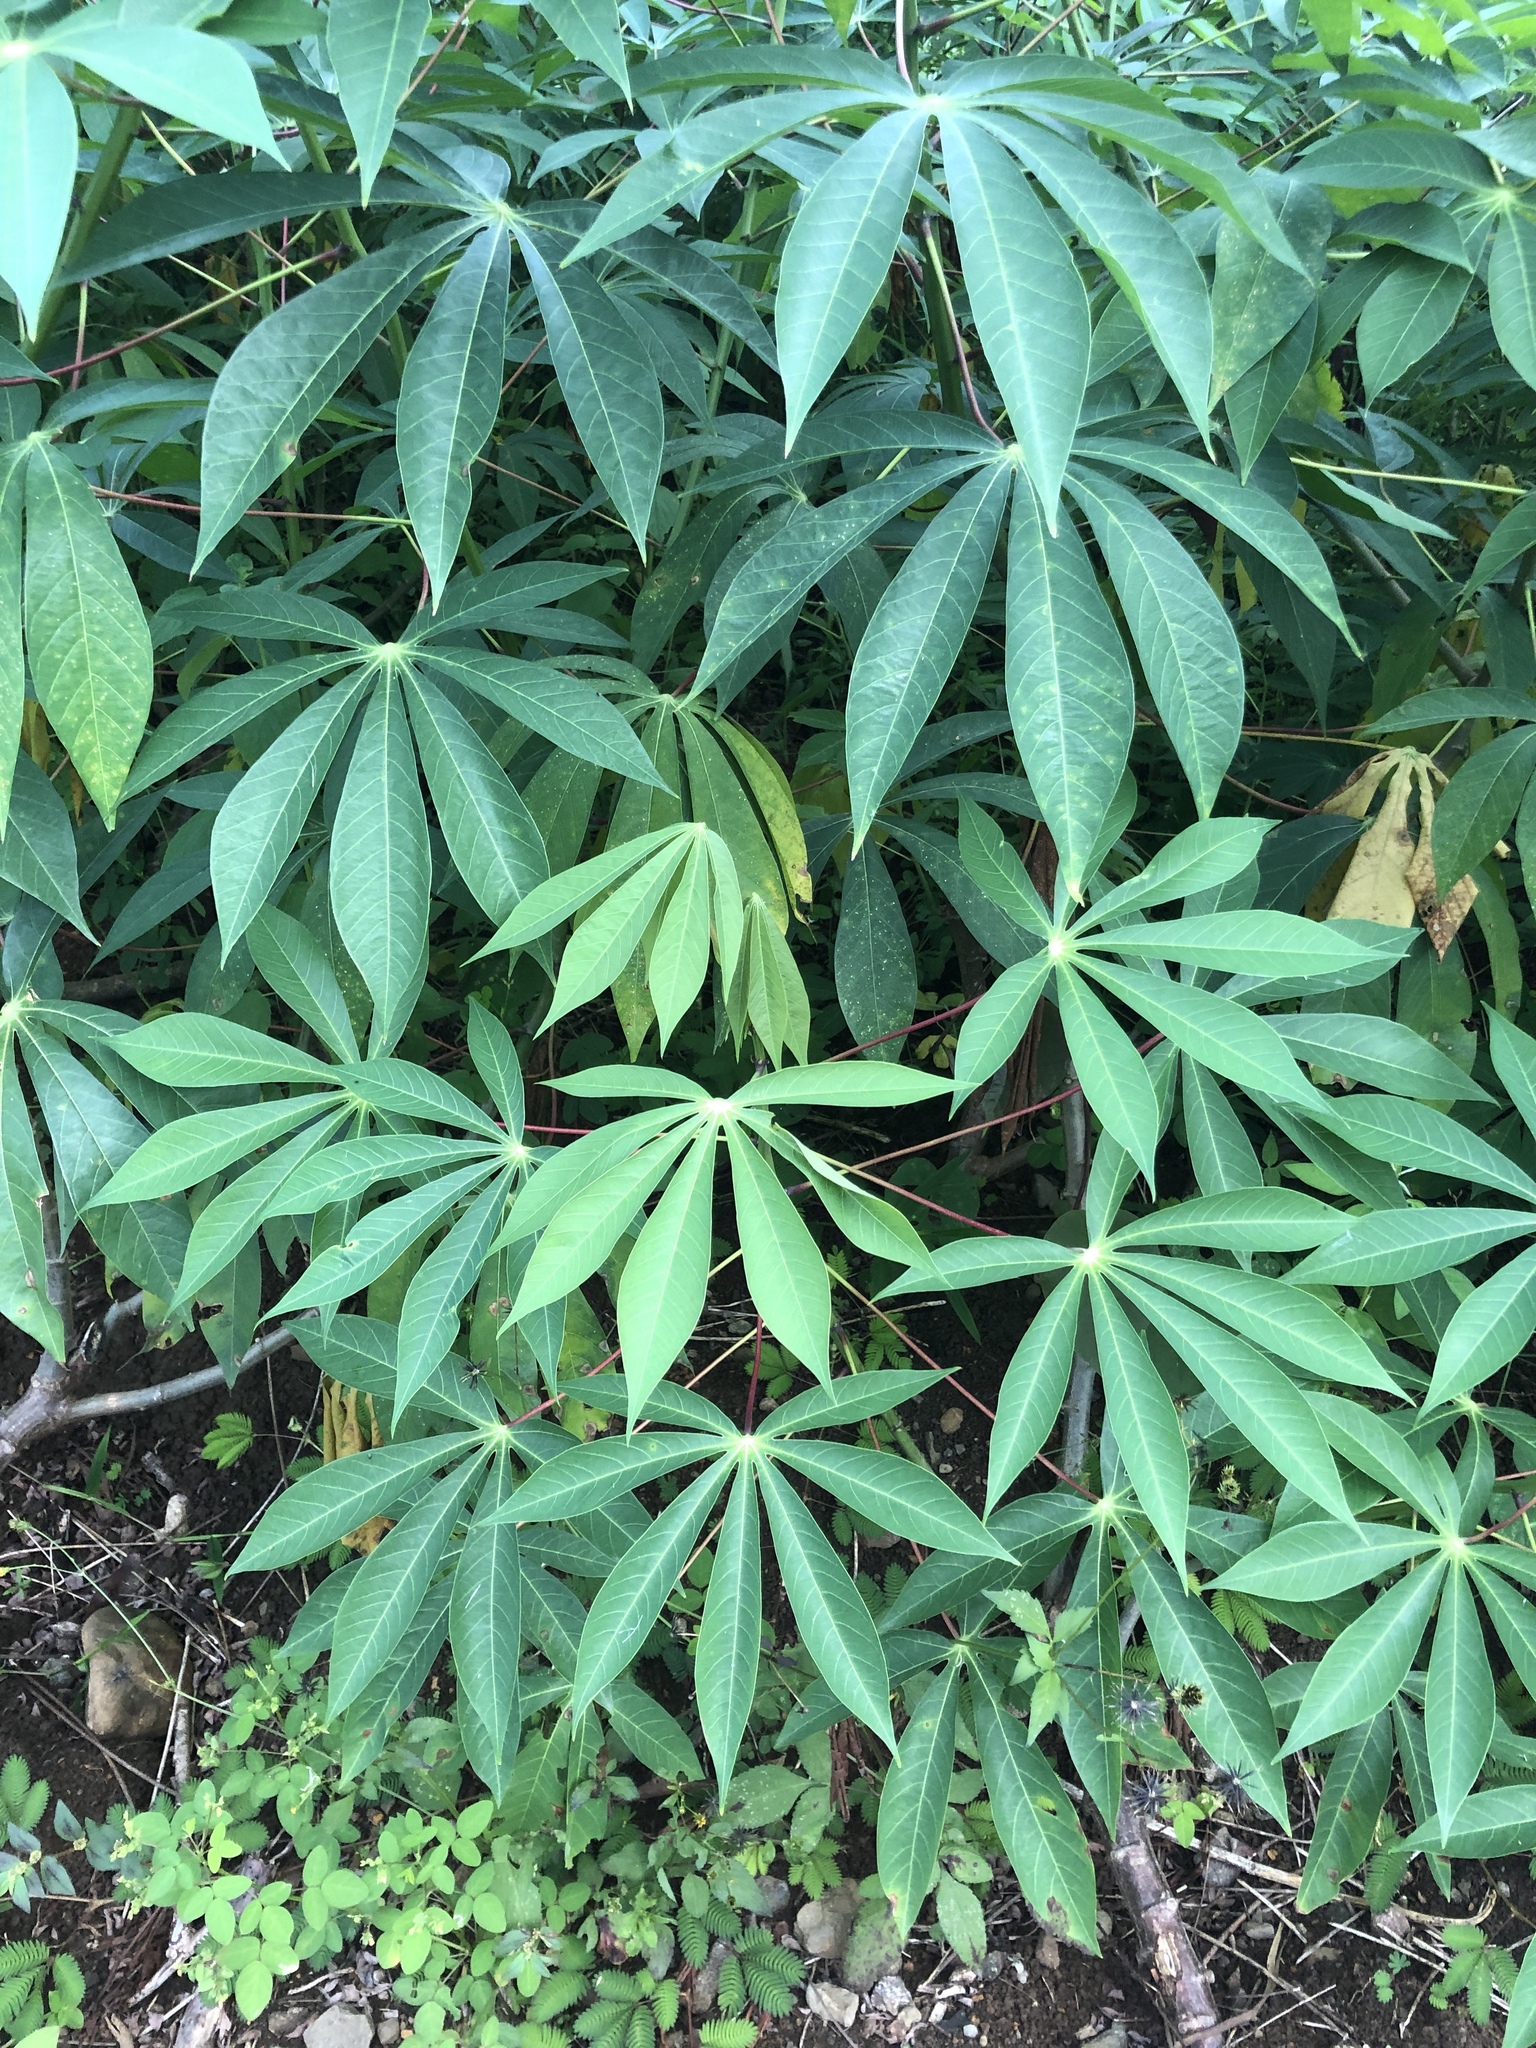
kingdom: Plantae
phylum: Tracheophyta
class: Magnoliopsida
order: Malpighiales
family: Euphorbiaceae
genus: Manihot
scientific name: Manihot esculenta
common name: Cassava
